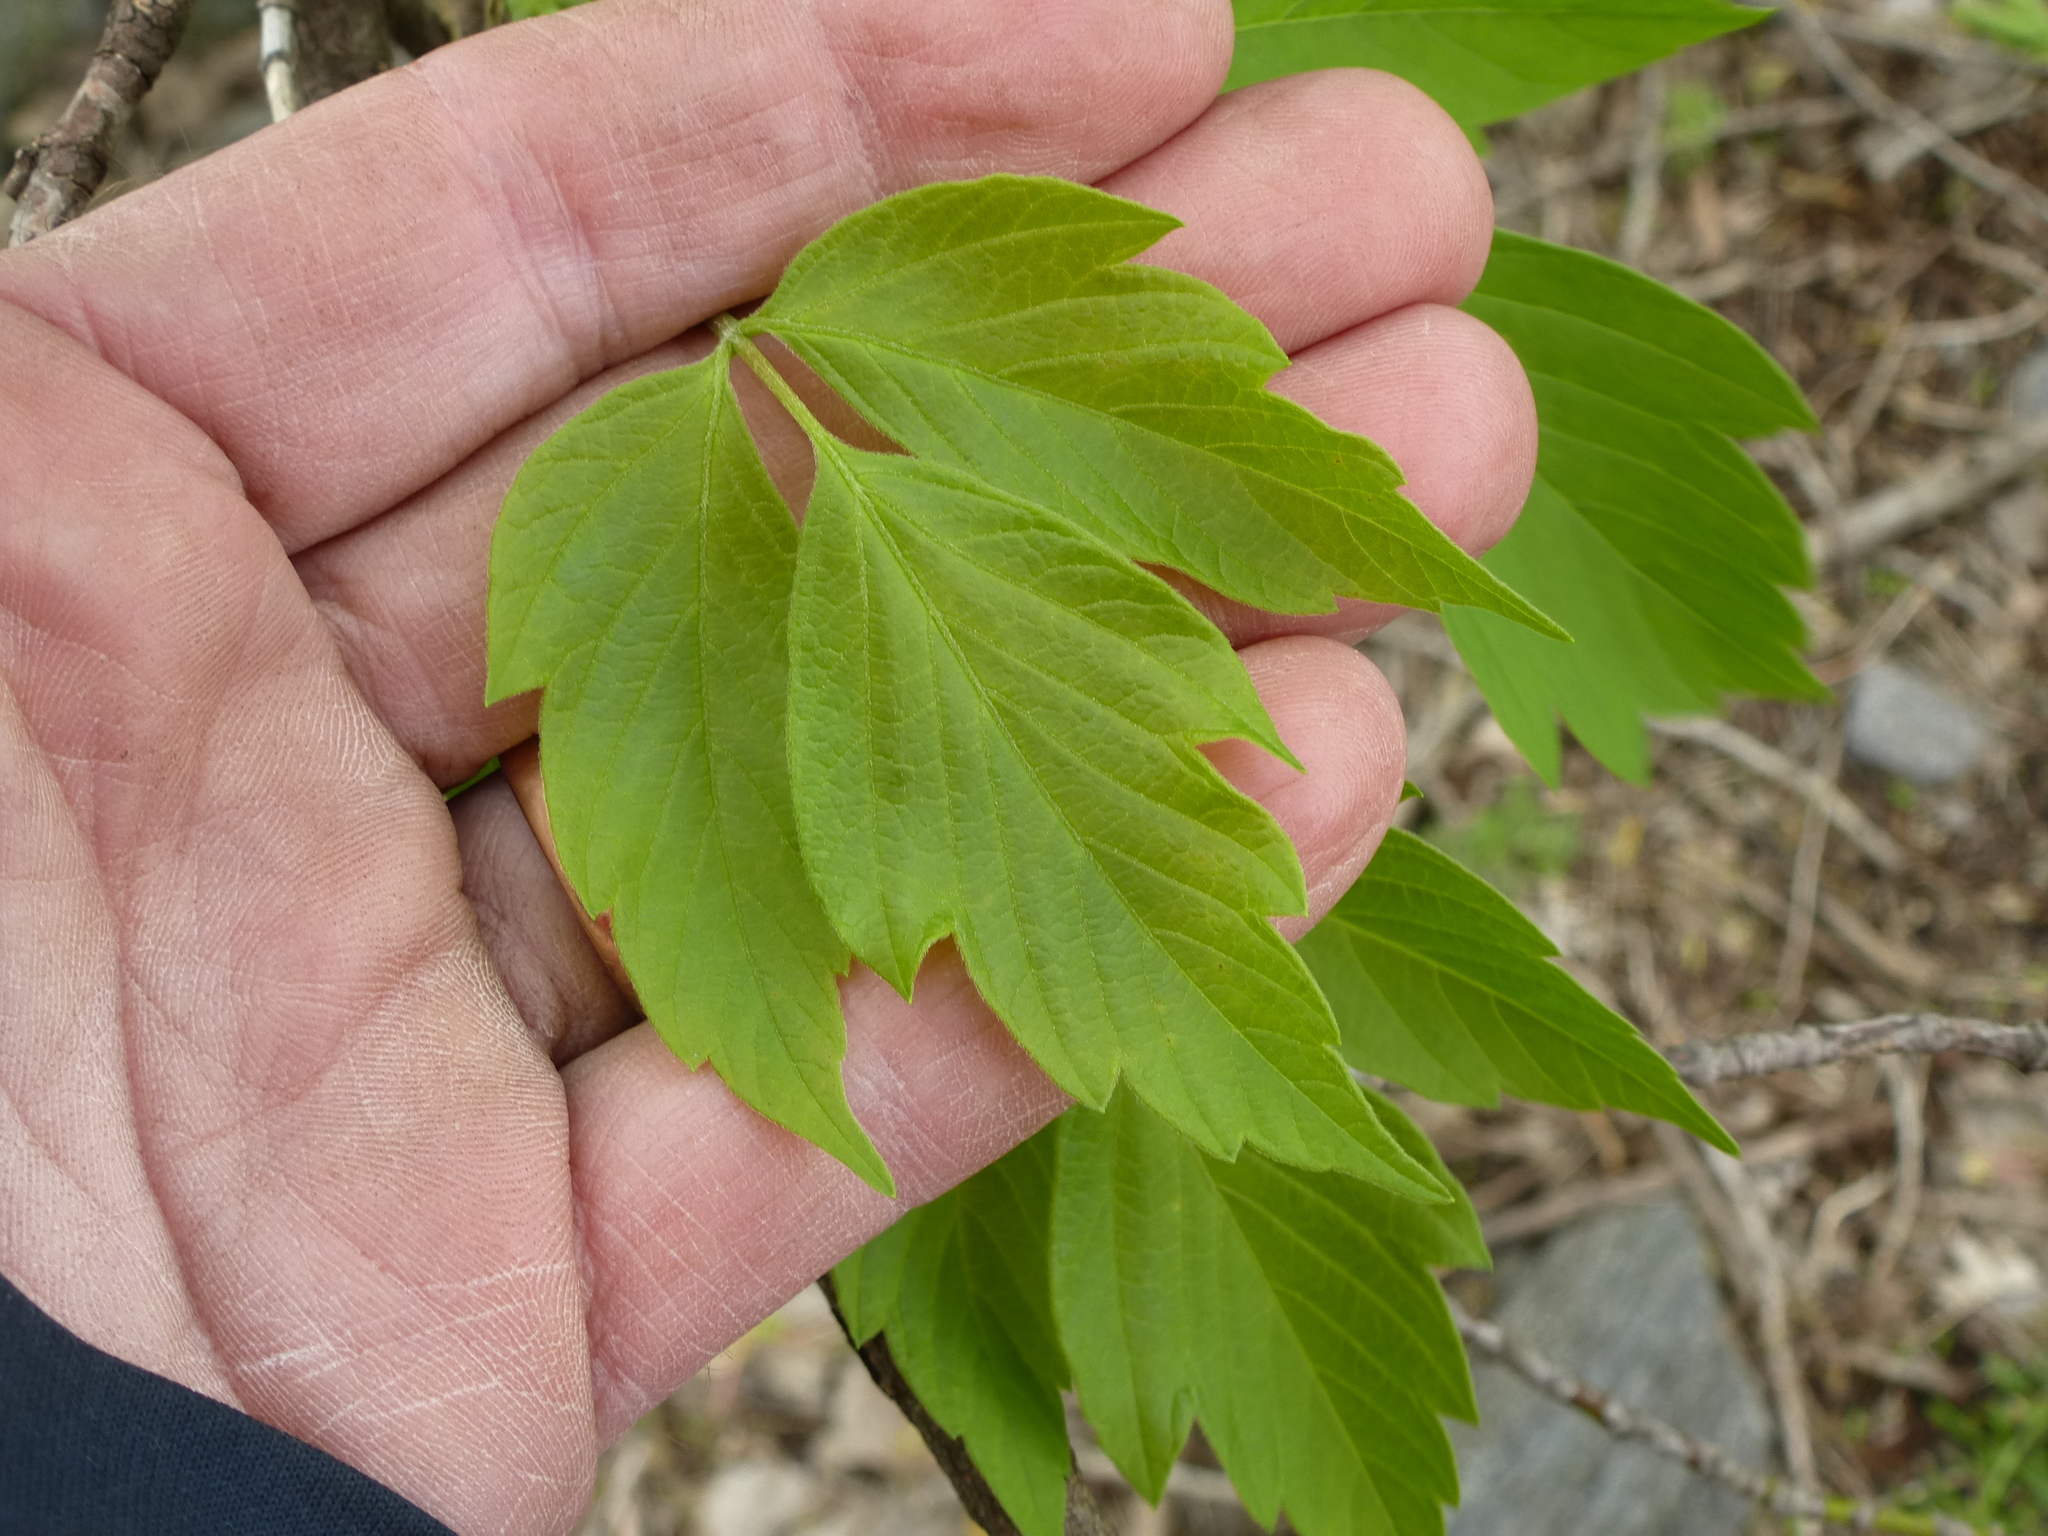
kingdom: Plantae
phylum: Tracheophyta
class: Magnoliopsida
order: Sapindales
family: Sapindaceae
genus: Acer
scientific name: Acer negundo
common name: Ashleaf maple
